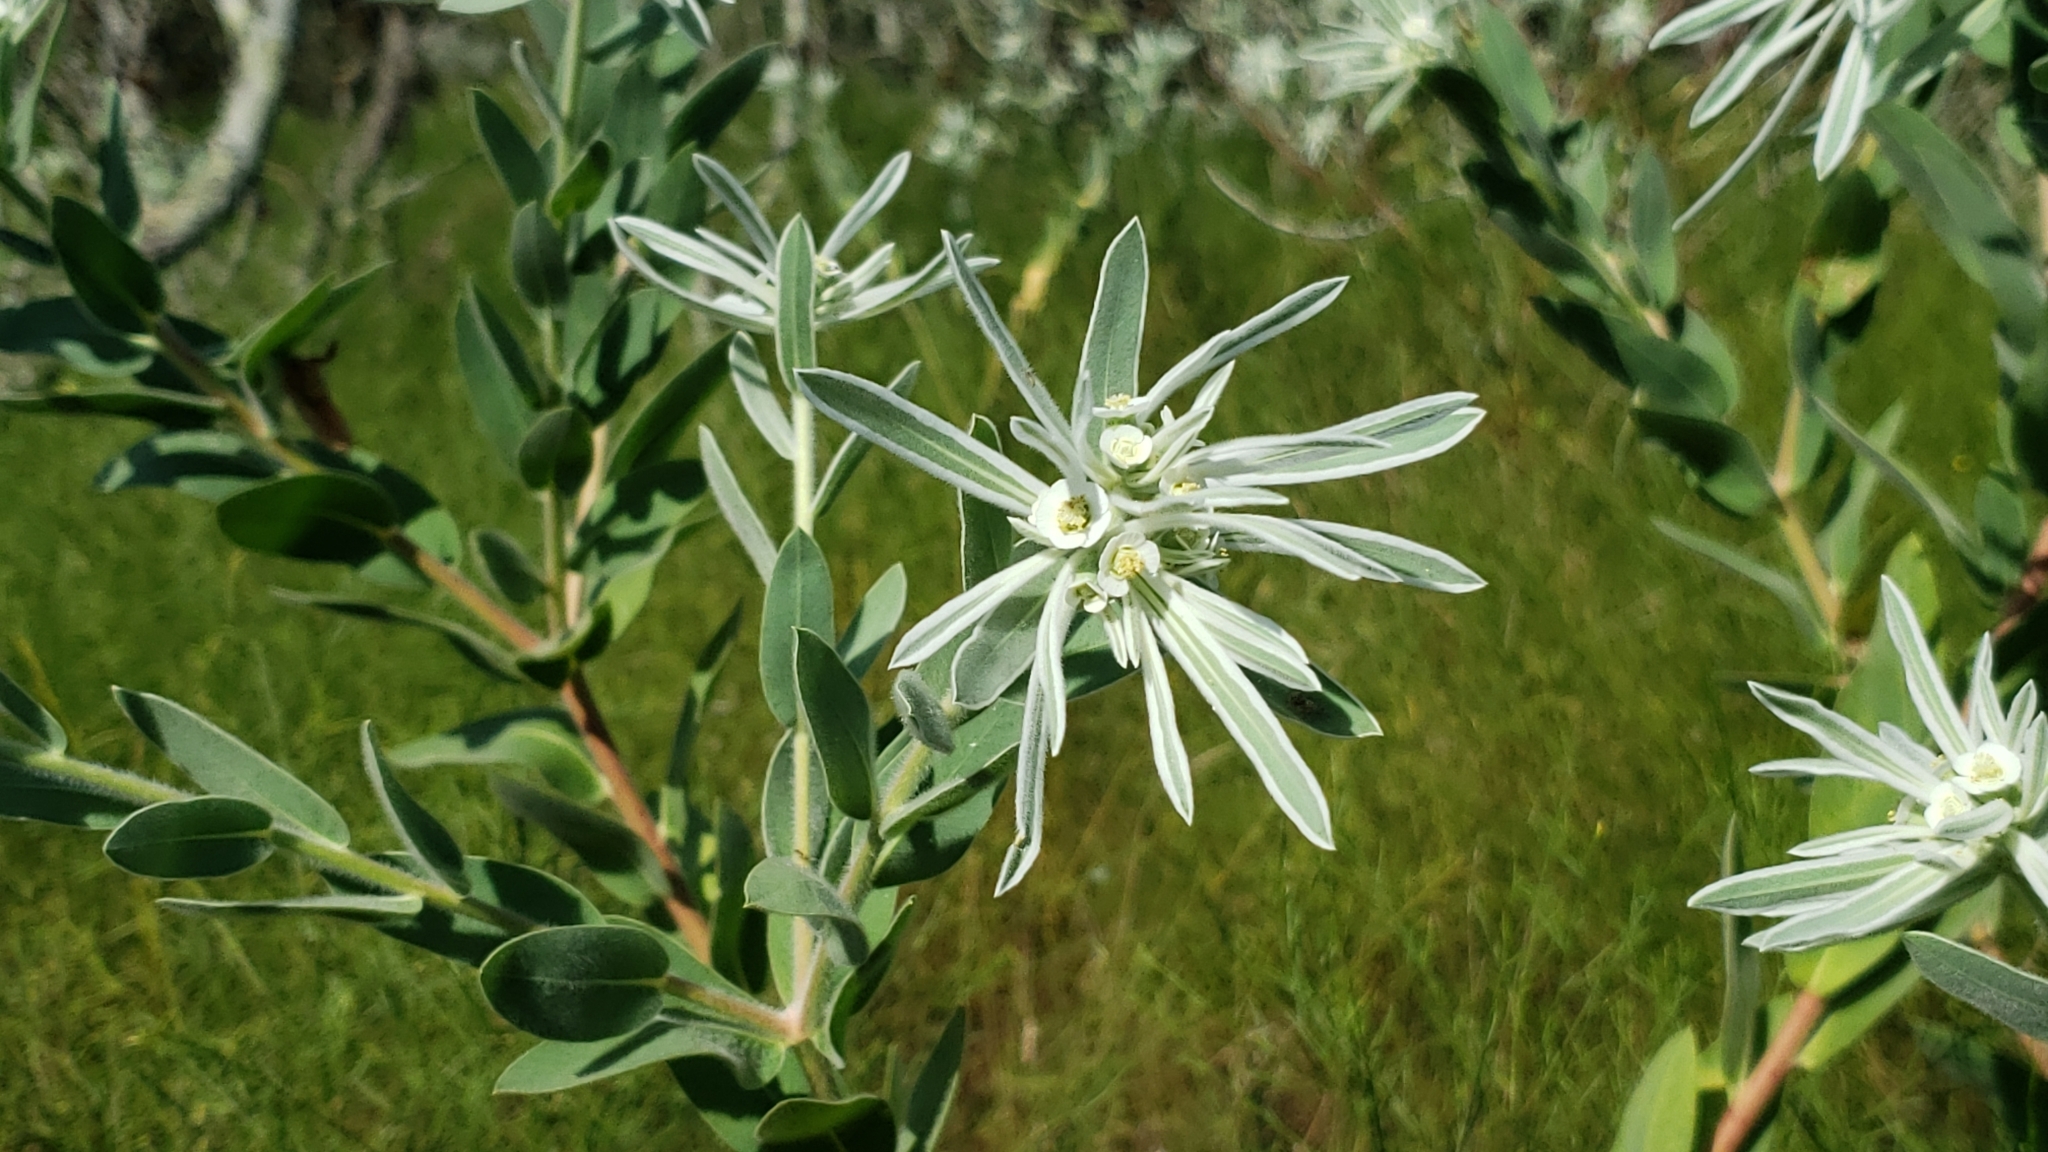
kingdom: Plantae
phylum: Tracheophyta
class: Magnoliopsida
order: Malpighiales
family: Euphorbiaceae
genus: Euphorbia
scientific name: Euphorbia bicolor
